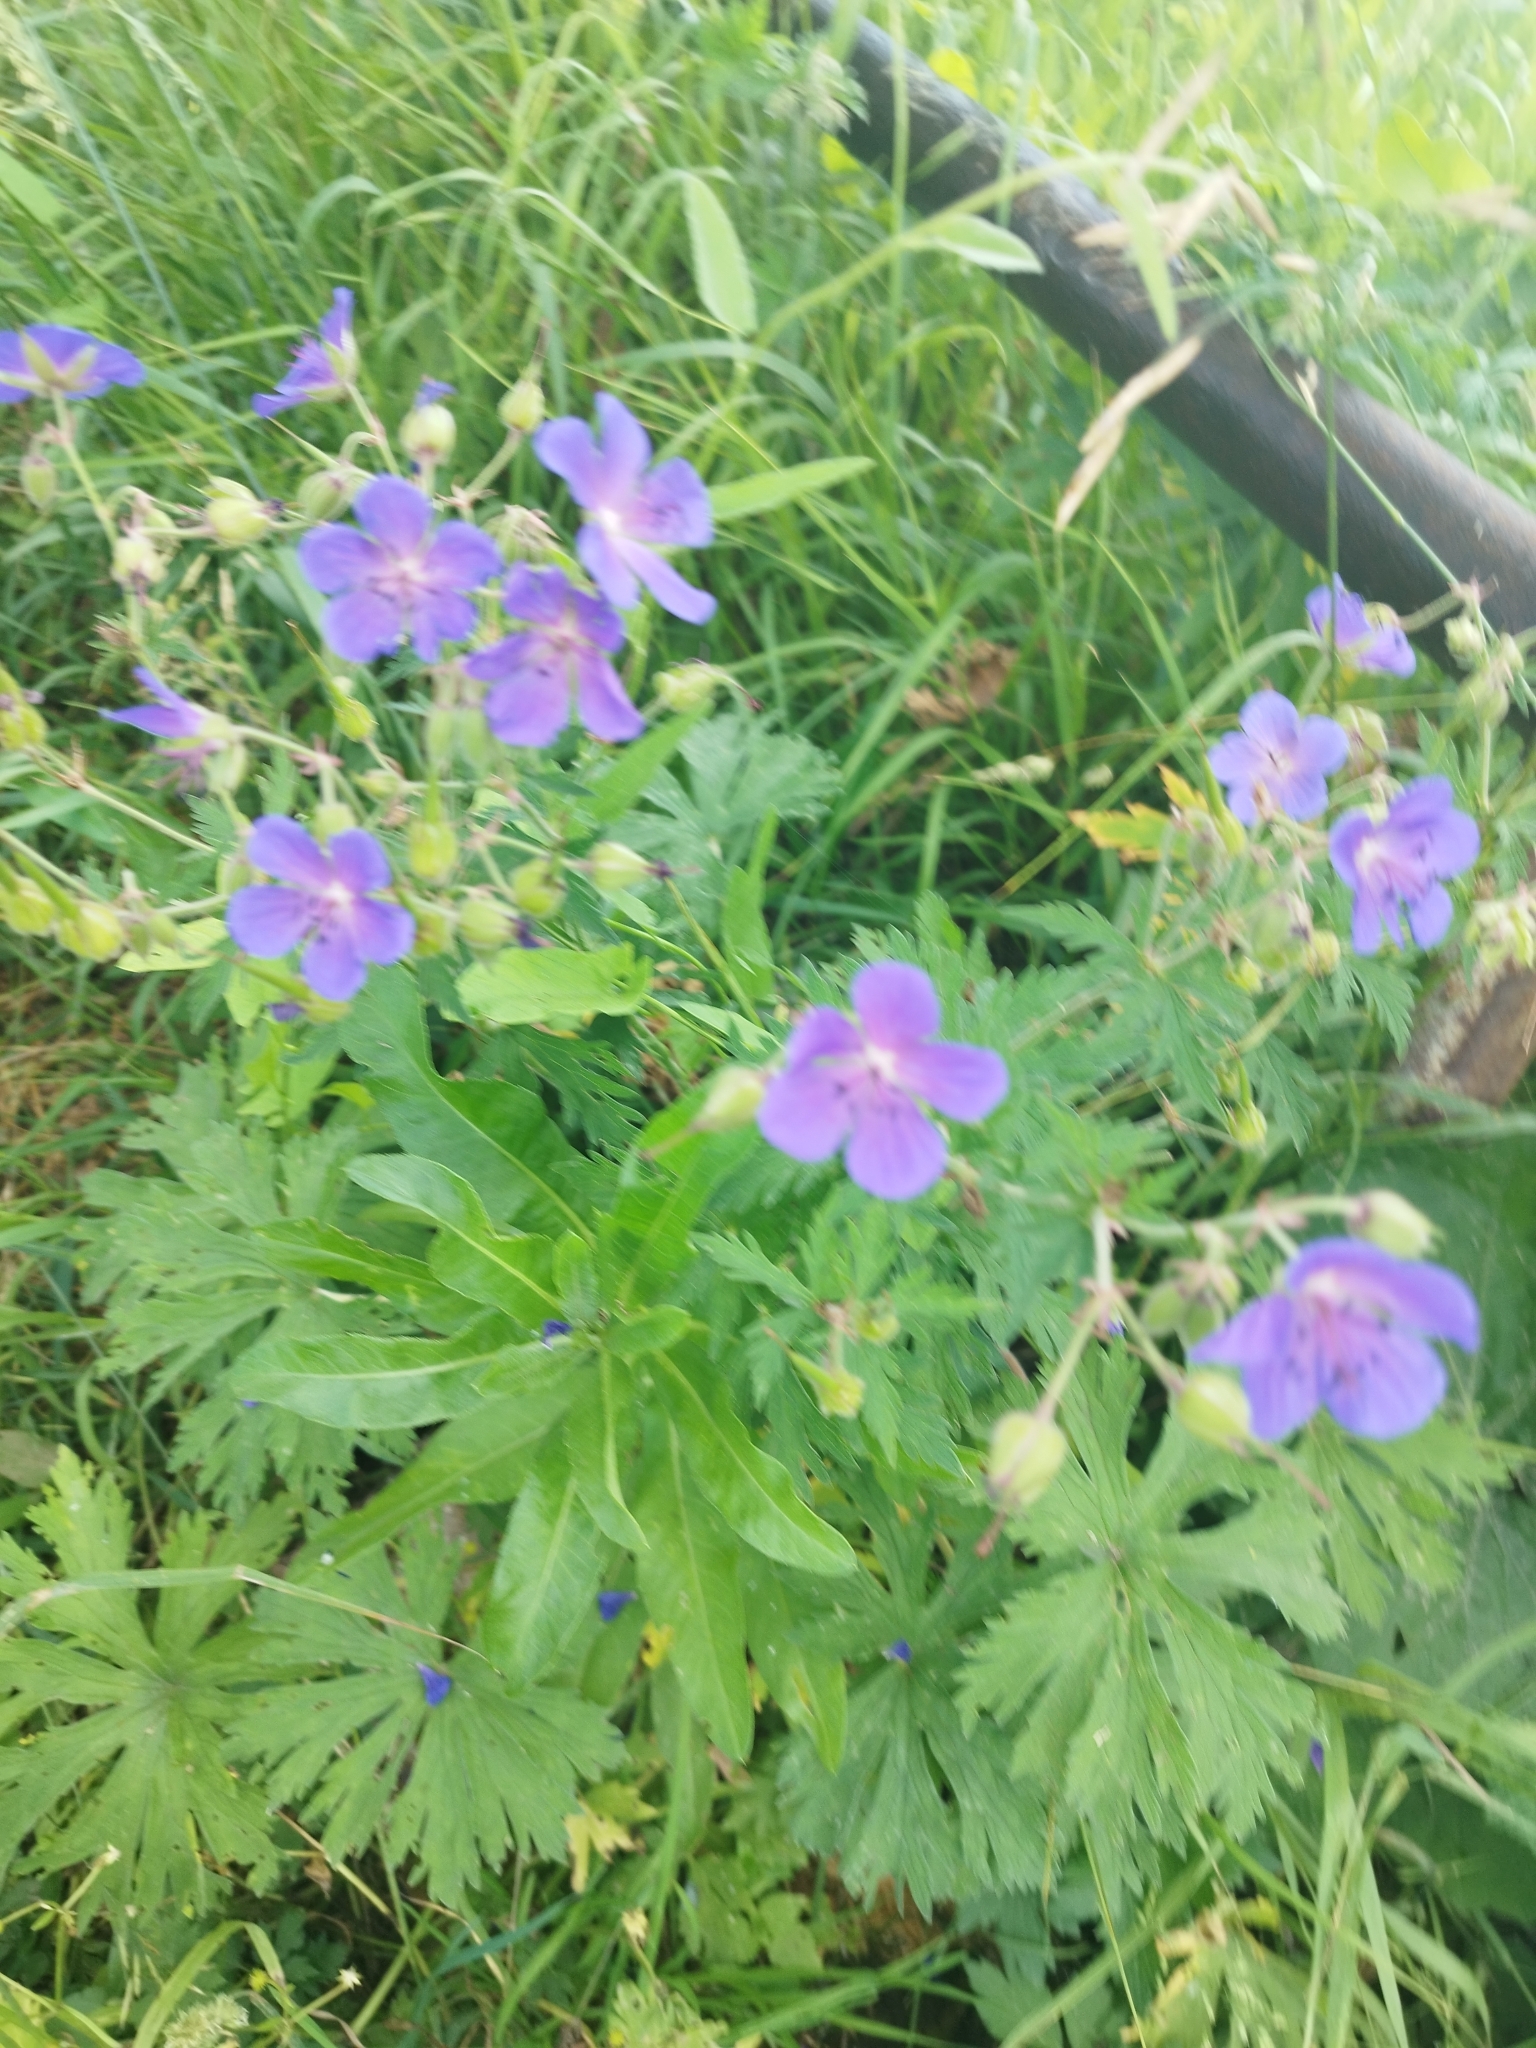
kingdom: Plantae
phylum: Tracheophyta
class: Magnoliopsida
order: Geraniales
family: Geraniaceae
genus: Geranium
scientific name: Geranium pratense
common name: Meadow crane's-bill
